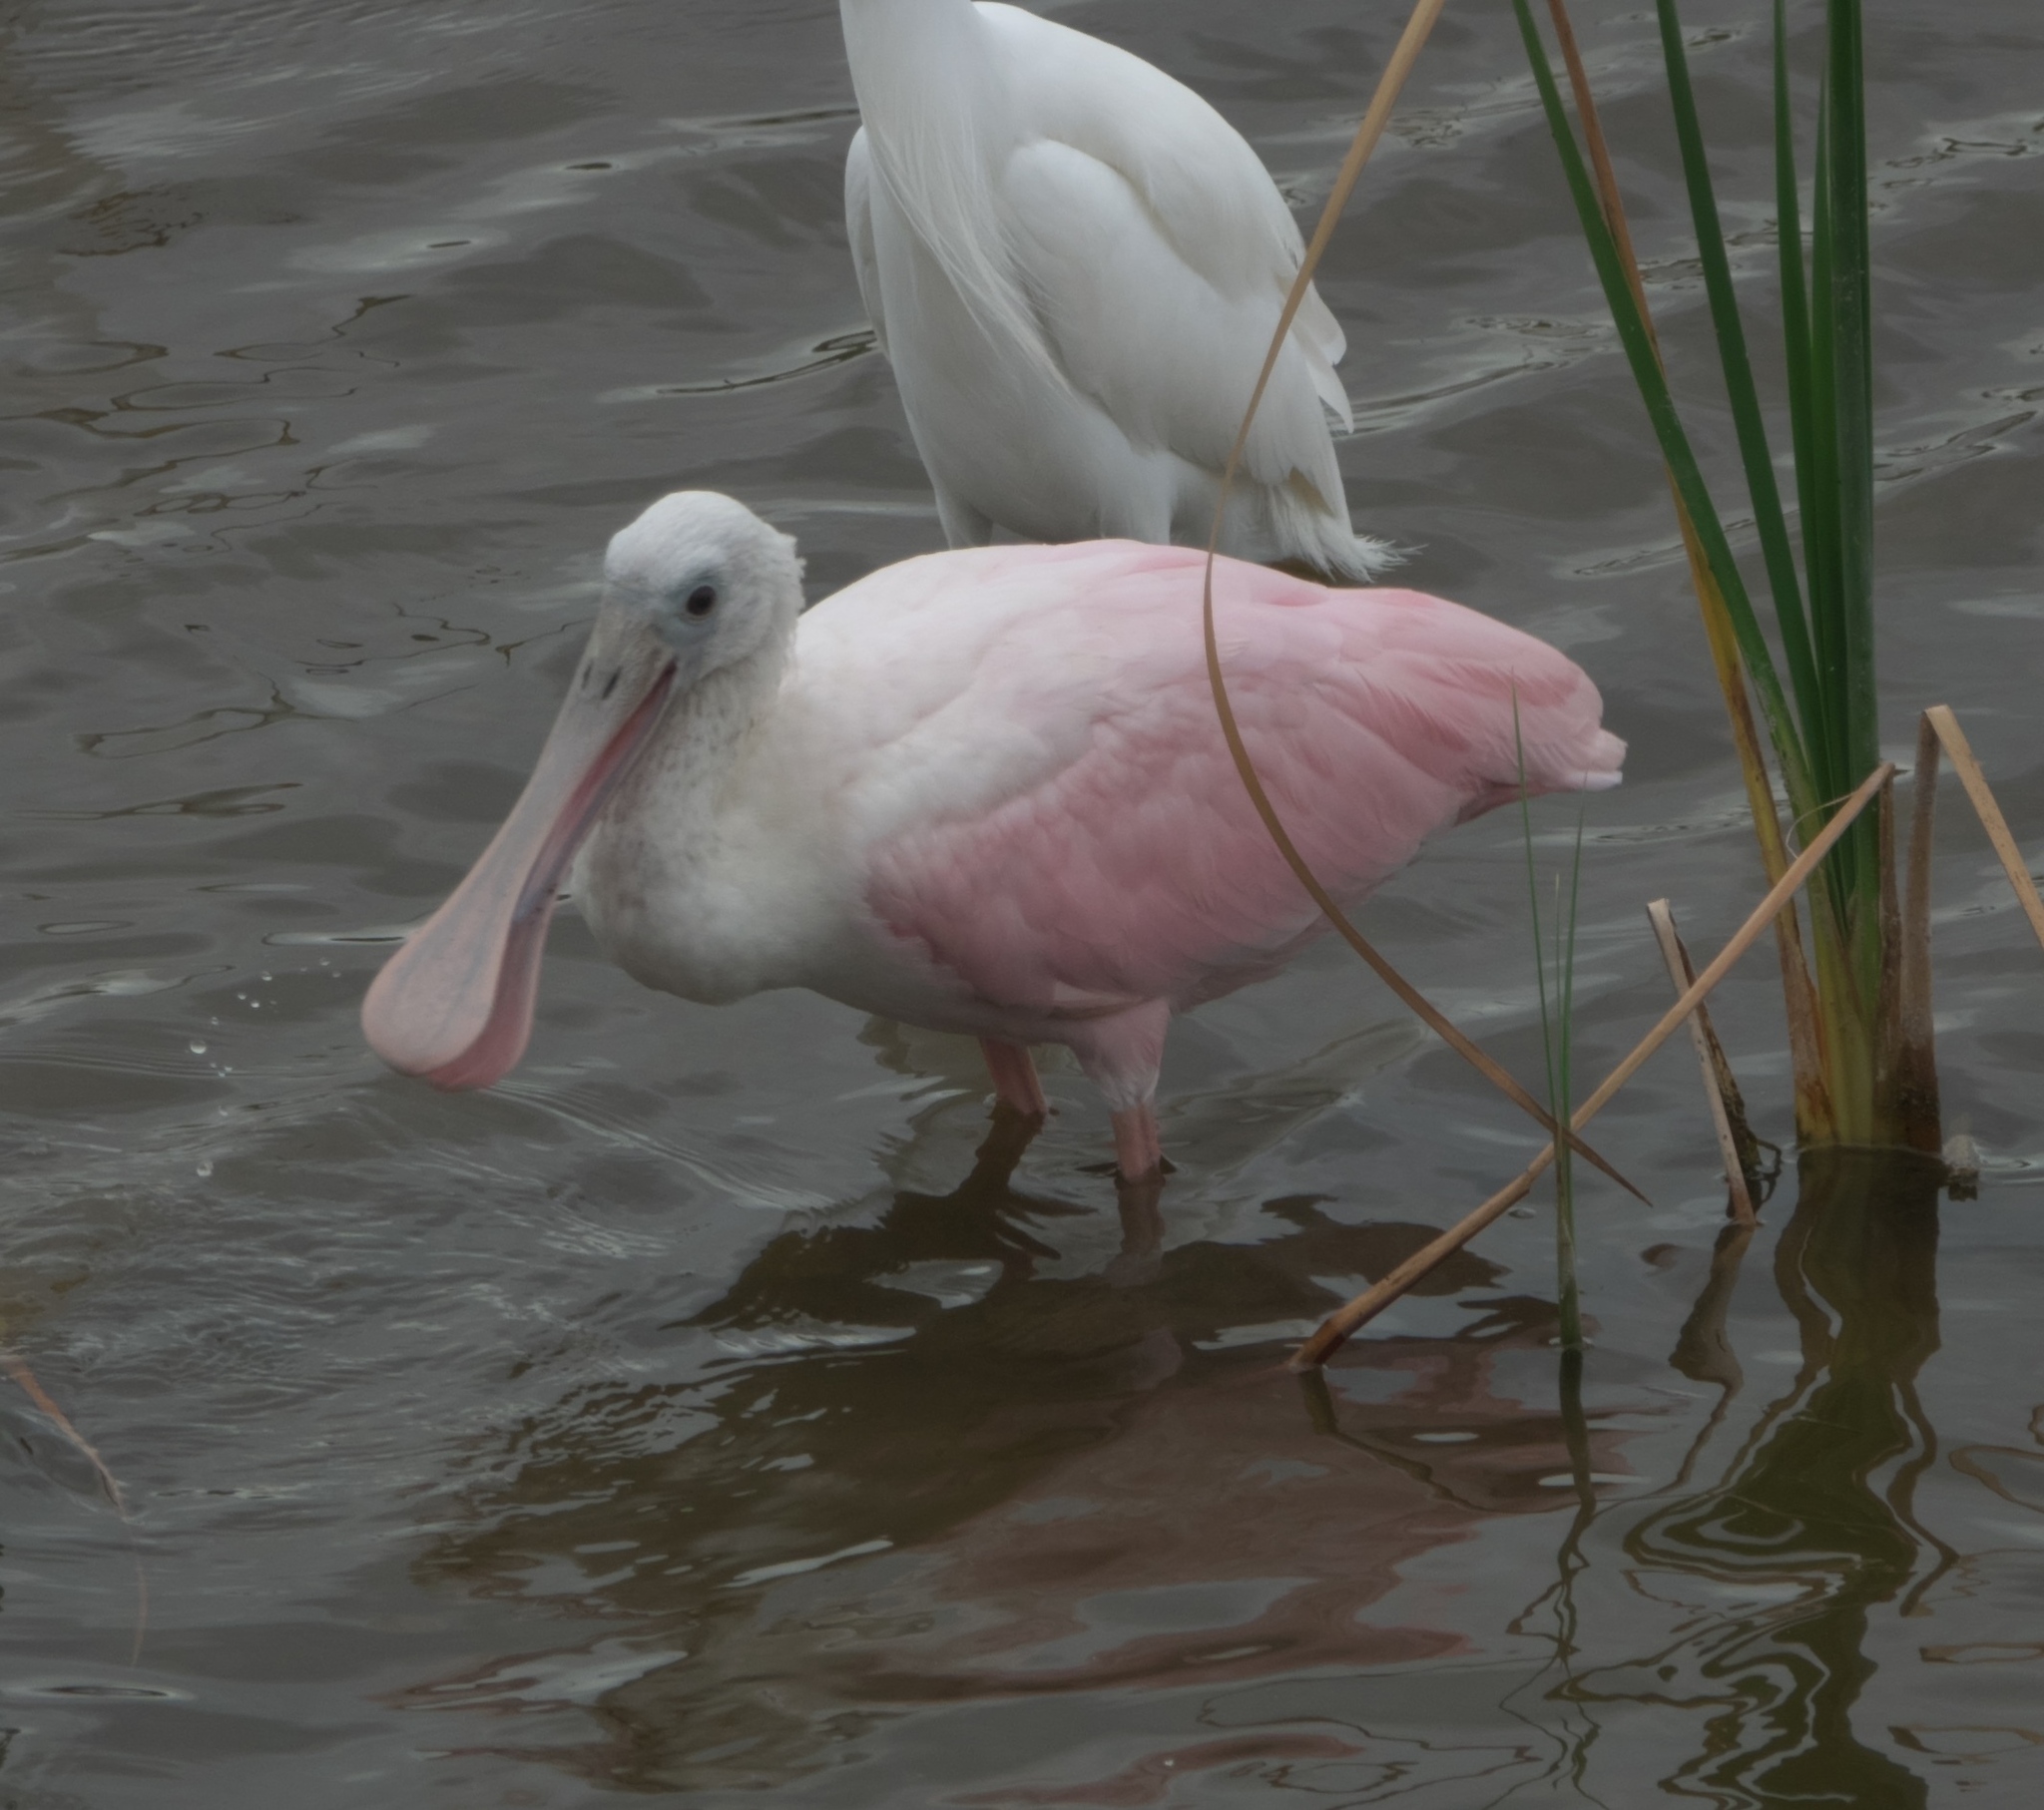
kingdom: Animalia
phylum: Chordata
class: Aves
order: Pelecaniformes
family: Threskiornithidae
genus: Platalea
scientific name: Platalea ajaja
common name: Roseate spoonbill
